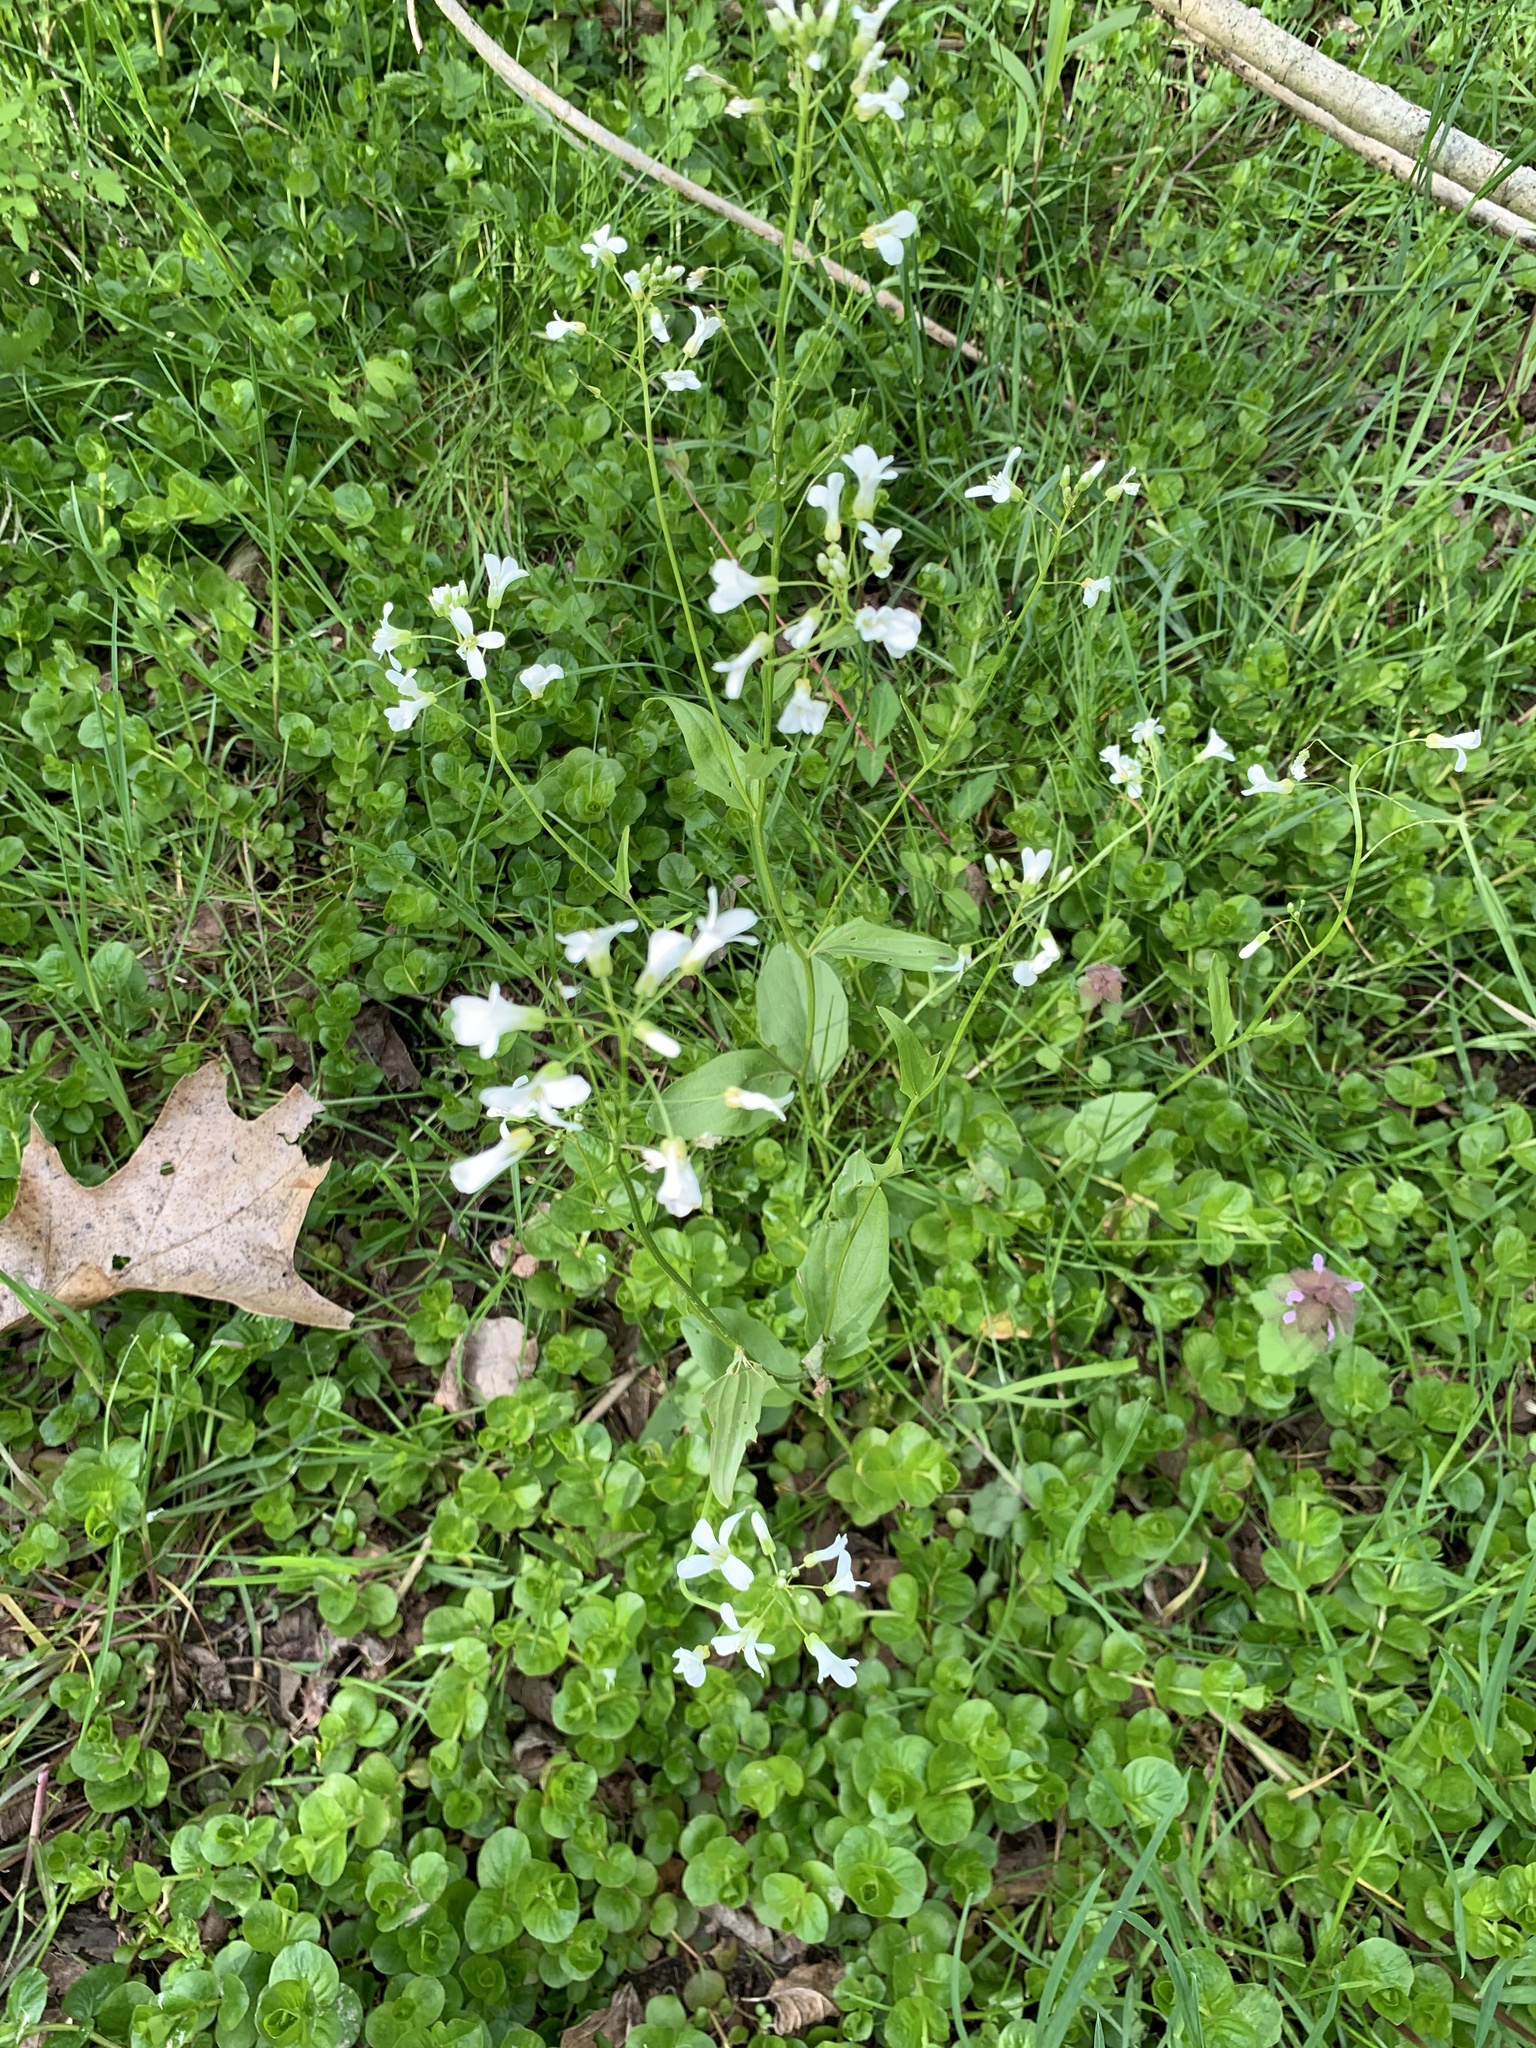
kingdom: Plantae
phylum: Tracheophyta
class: Magnoliopsida
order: Brassicales
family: Brassicaceae
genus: Cardamine
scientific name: Cardamine bulbosa
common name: Spring cress
